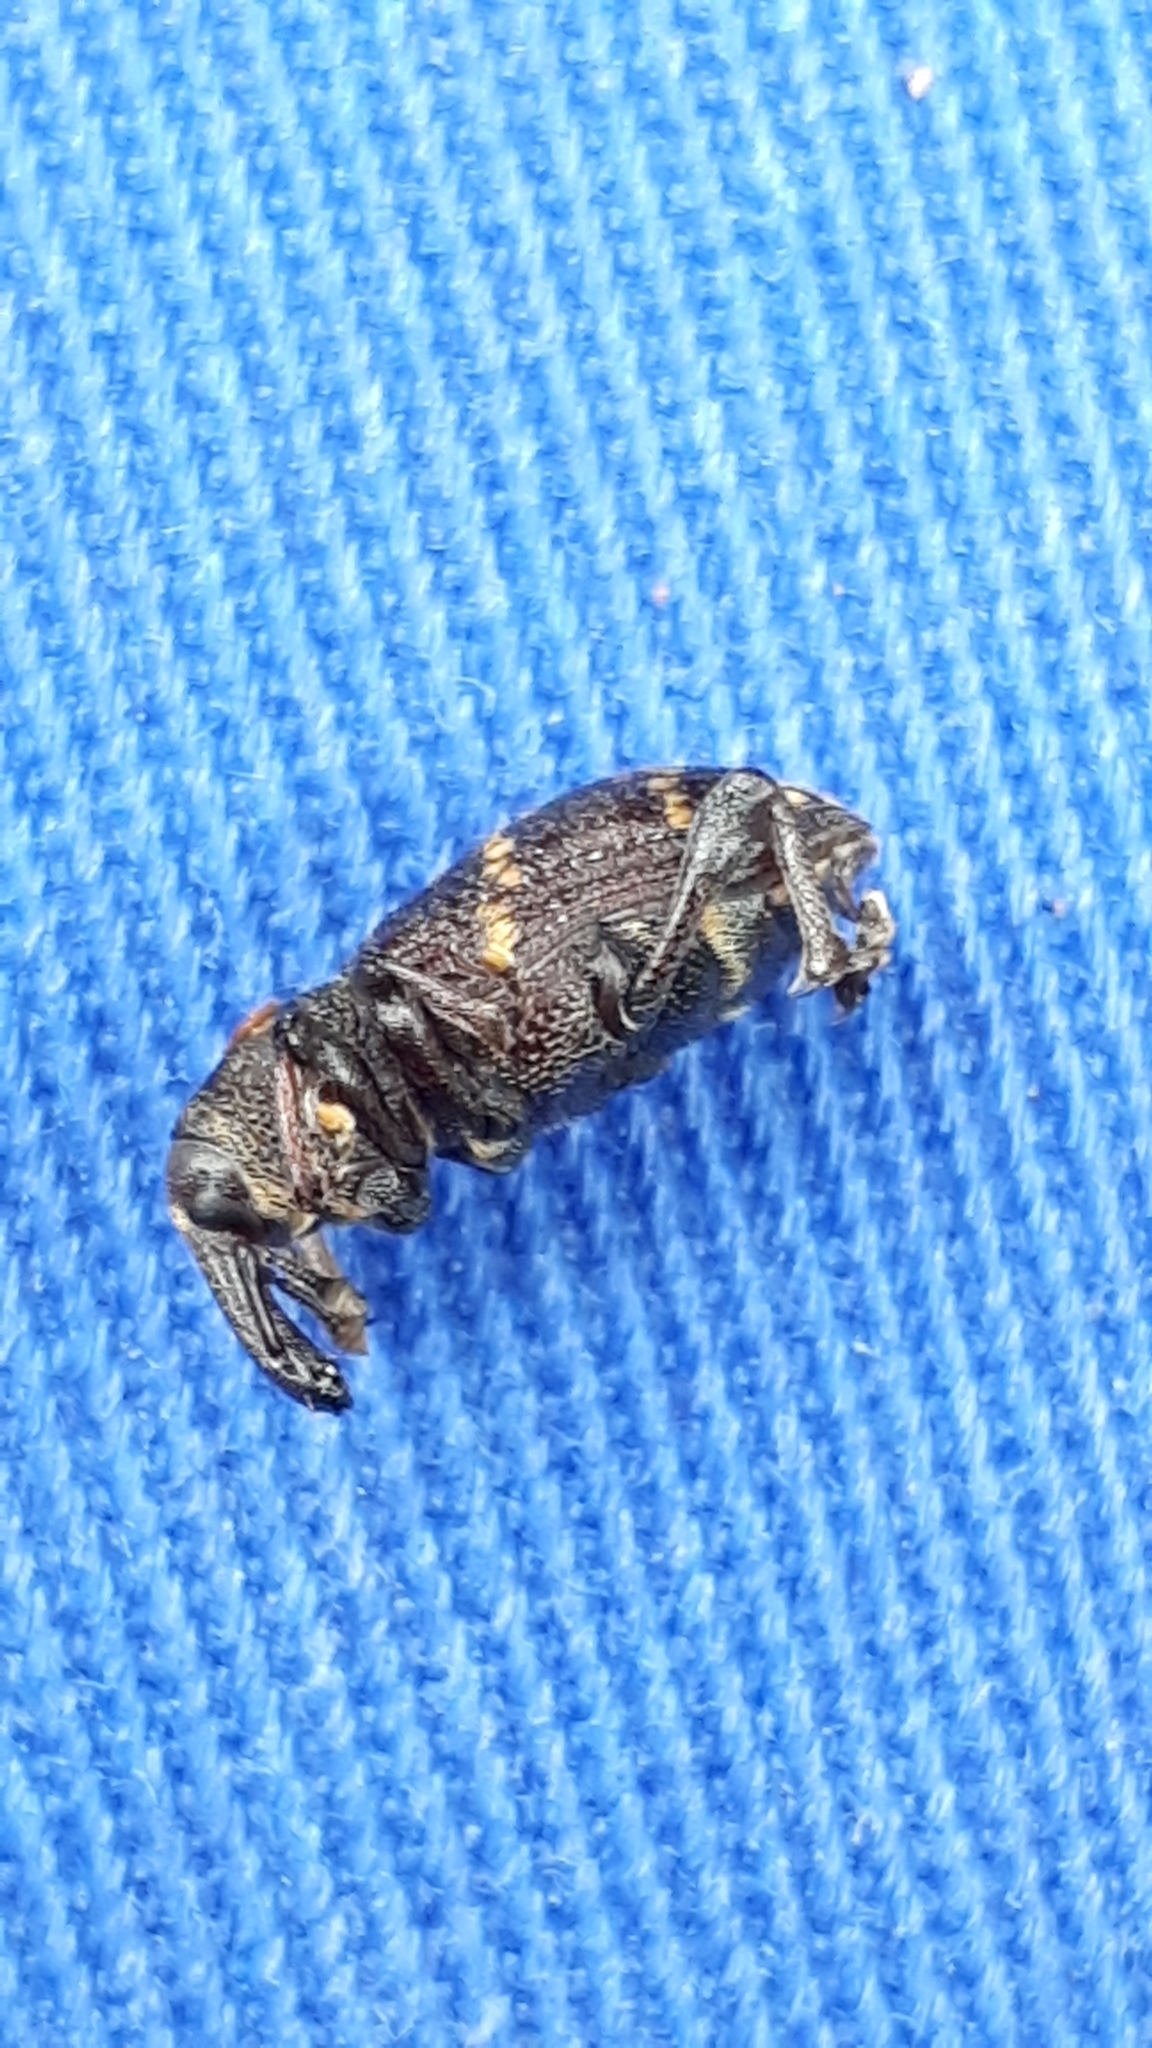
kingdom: Animalia
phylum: Arthropoda
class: Insecta
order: Coleoptera
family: Curculionidae
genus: Hylobius
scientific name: Hylobius abietis
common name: Large pine weevil
